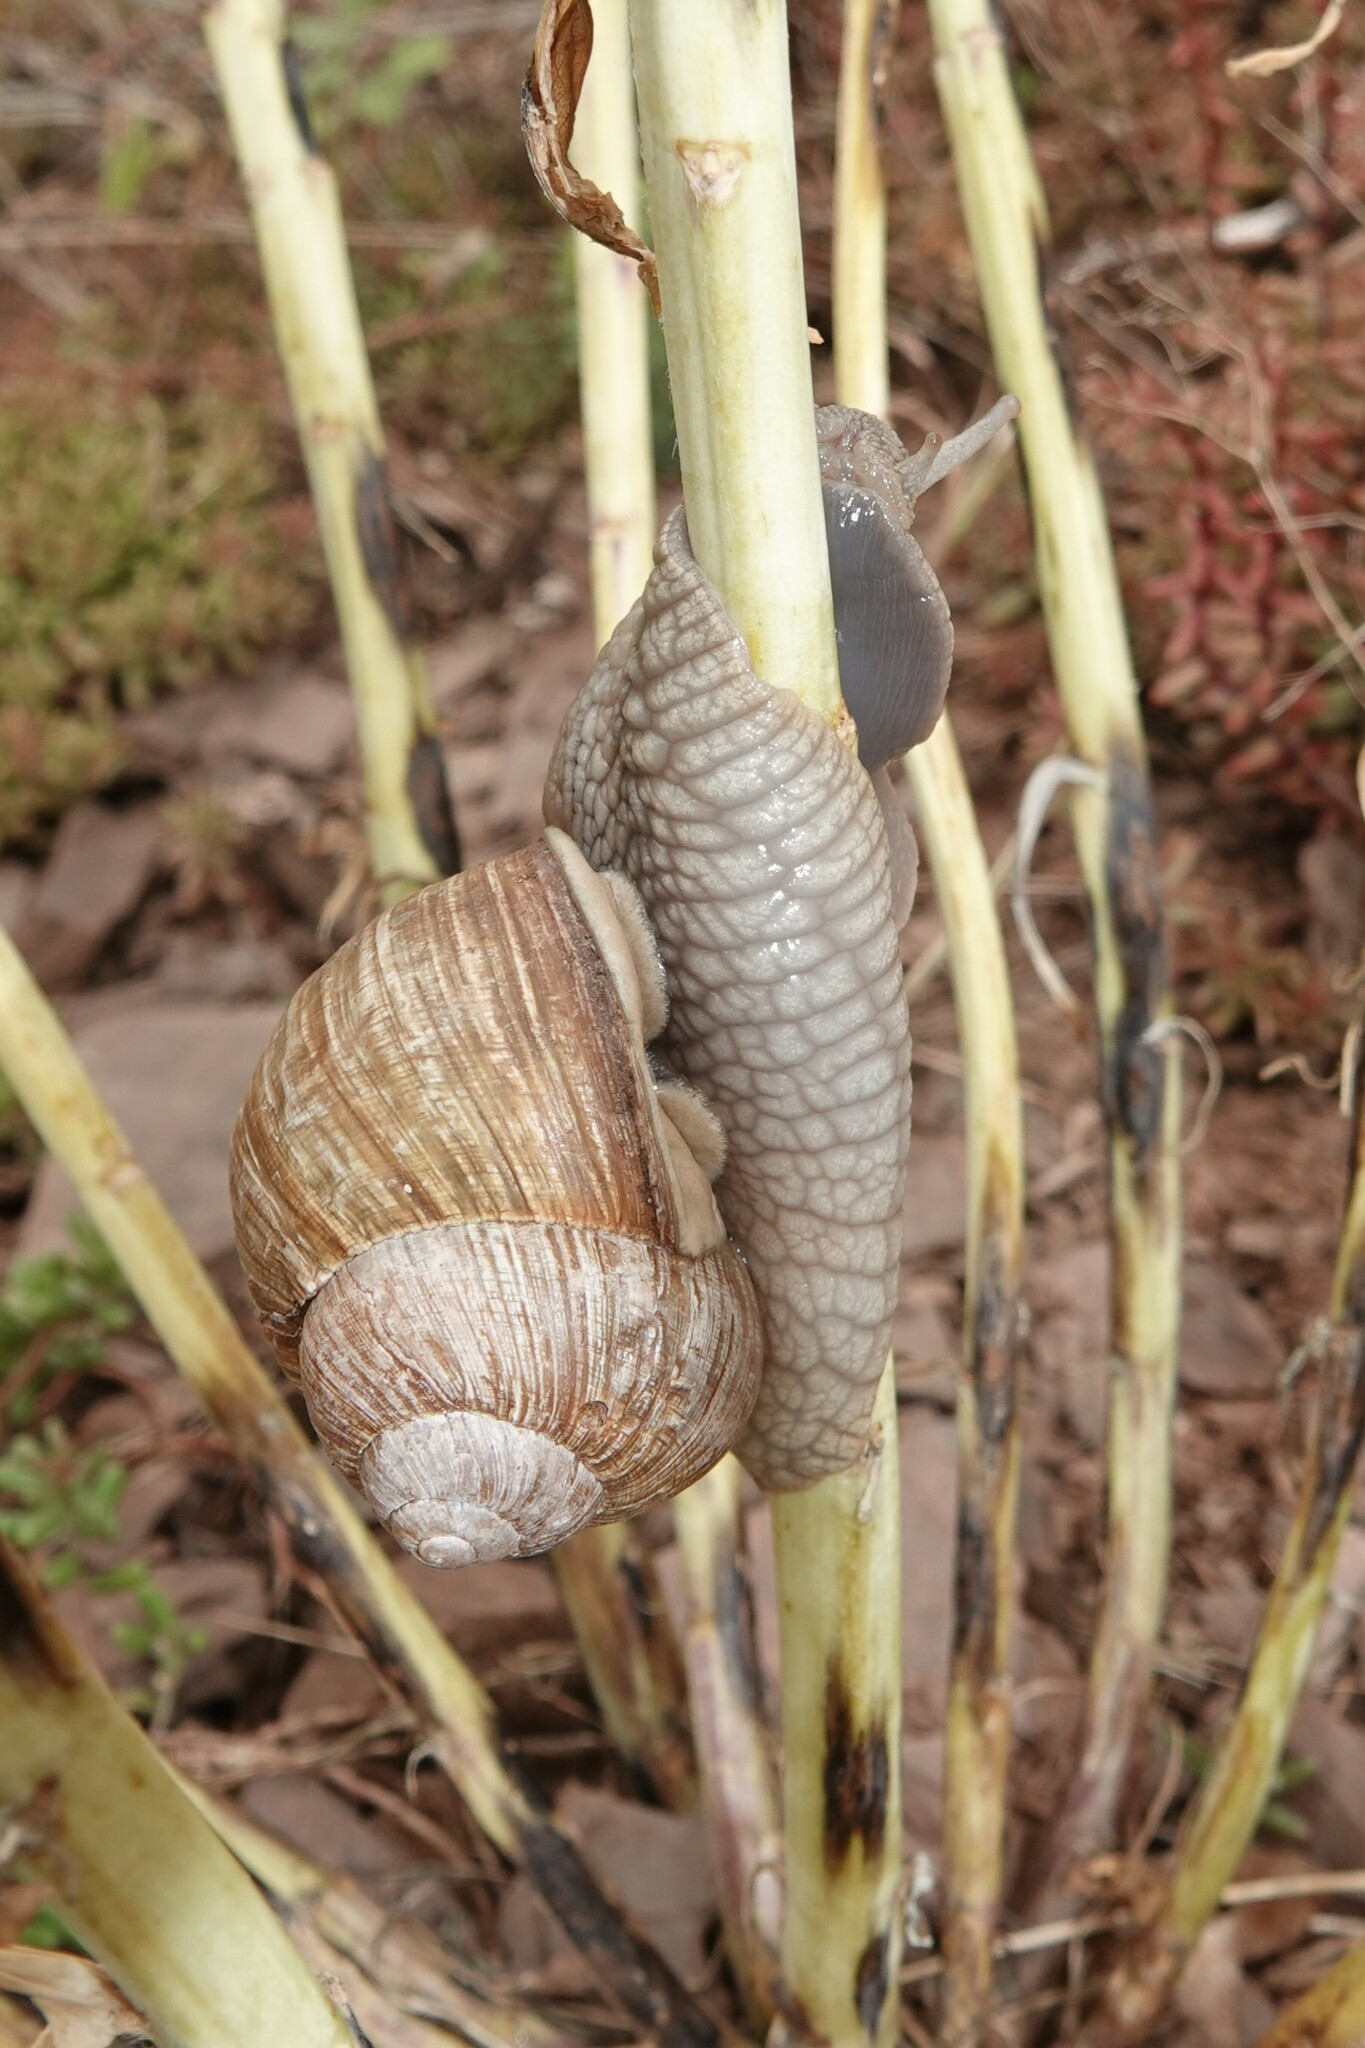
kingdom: Animalia
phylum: Mollusca
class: Gastropoda
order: Stylommatophora
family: Helicidae
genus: Helix
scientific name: Helix pomatia
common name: Roman snail
